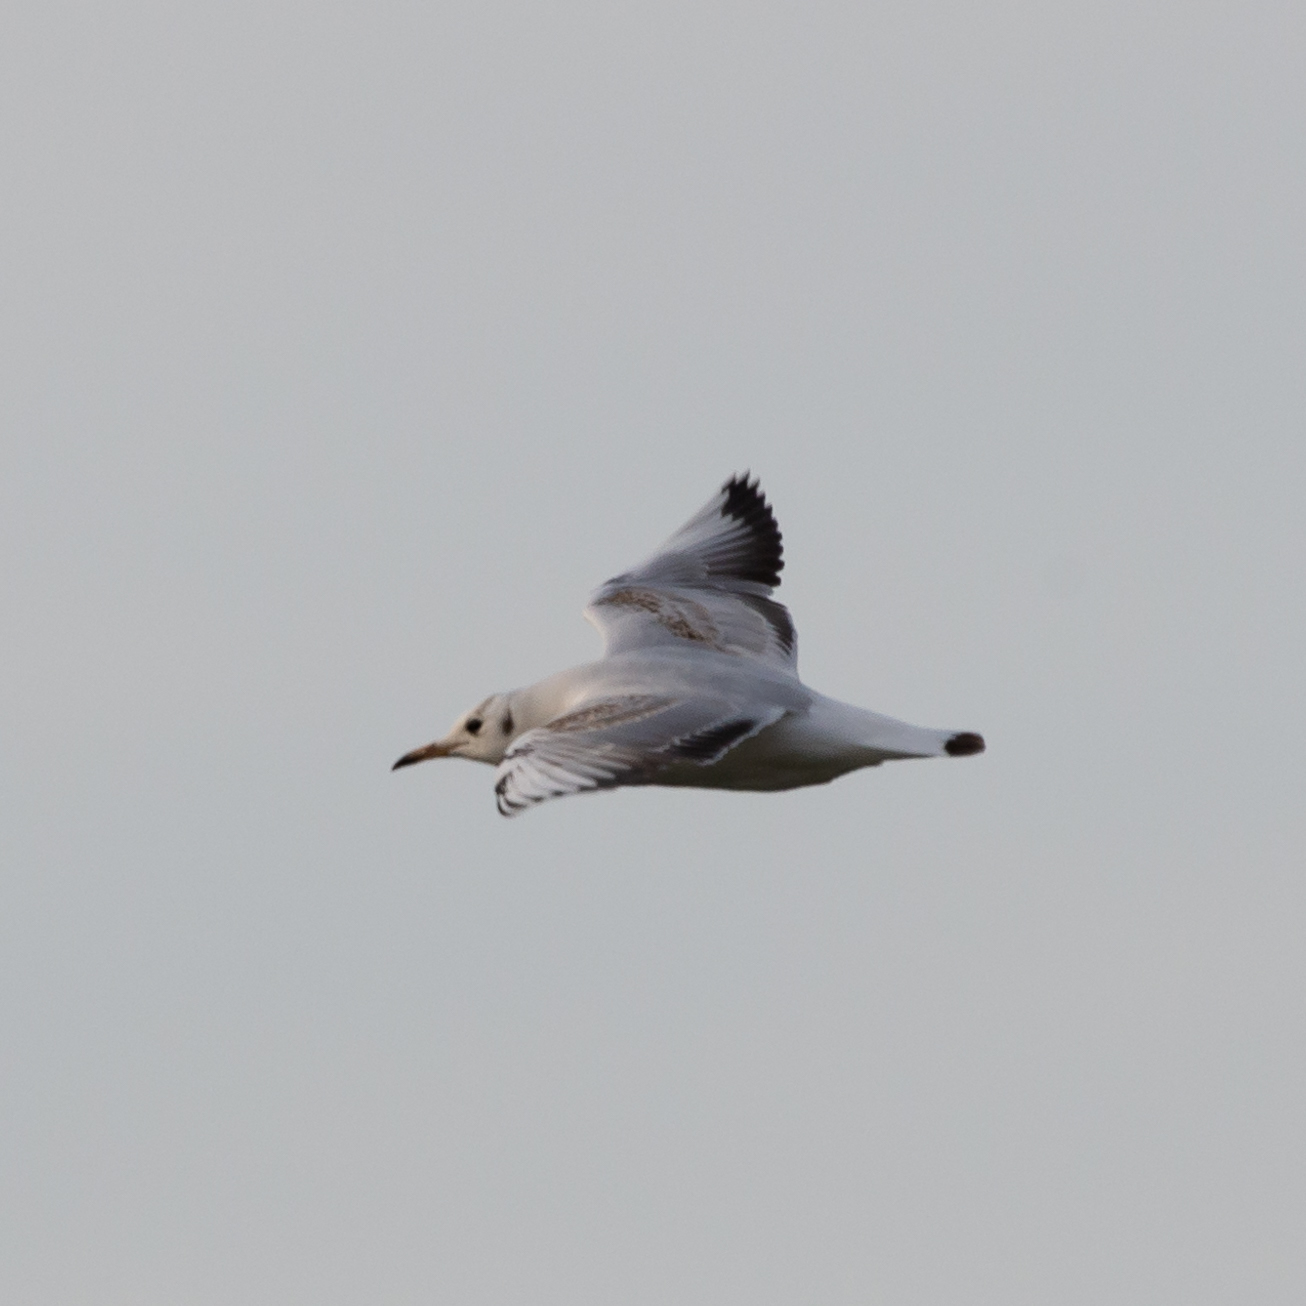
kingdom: Animalia
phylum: Chordata
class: Aves
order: Charadriiformes
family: Laridae
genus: Chroicocephalus
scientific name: Chroicocephalus ridibundus
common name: Black-headed gull
